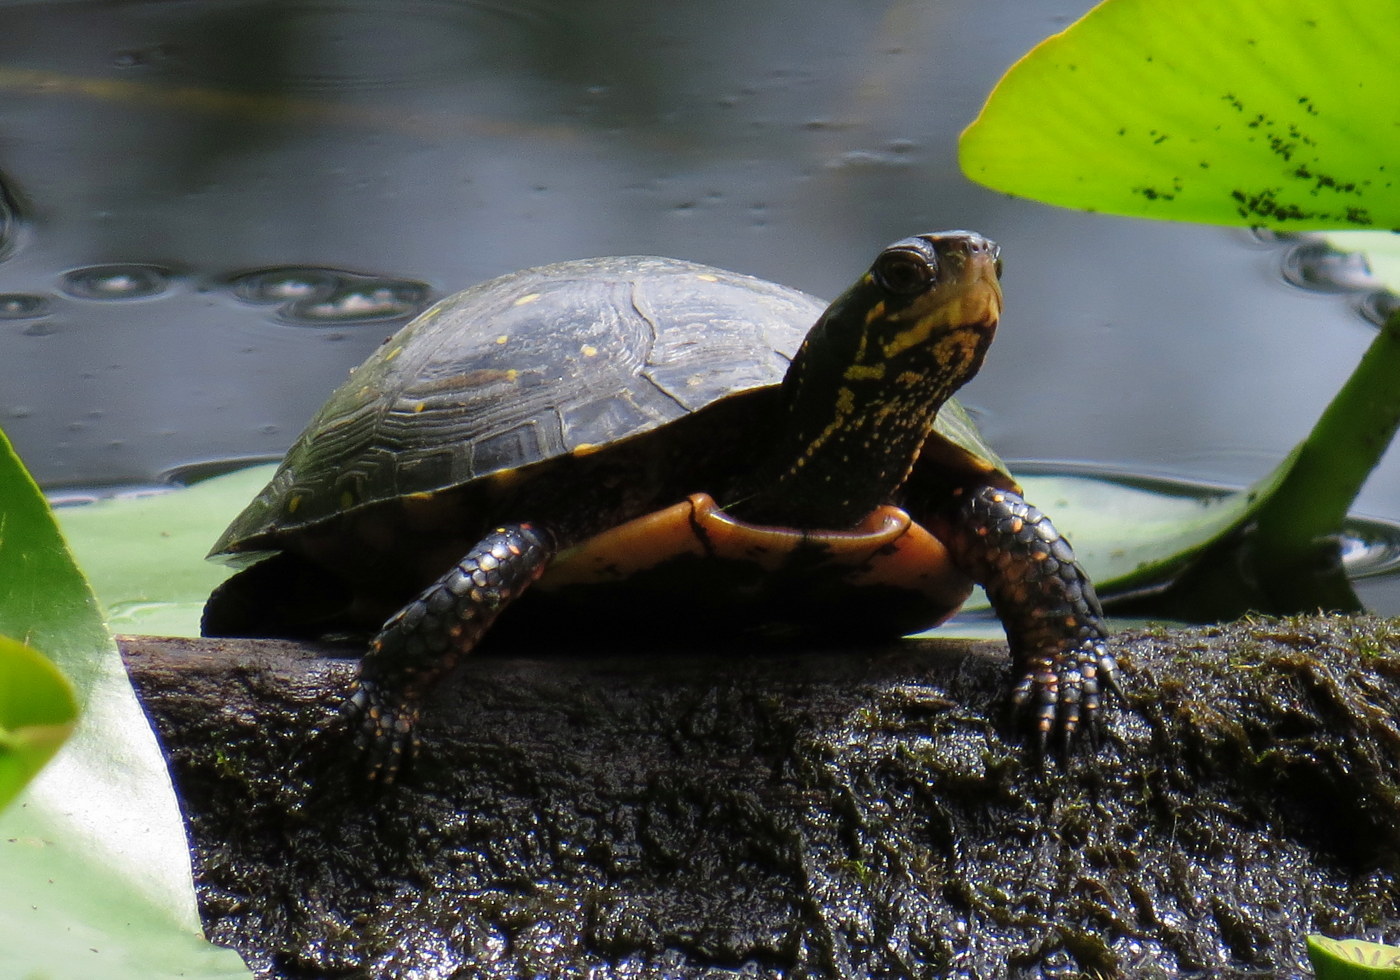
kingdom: Animalia
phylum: Chordata
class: Testudines
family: Emydidae
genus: Clemmys
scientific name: Clemmys guttata
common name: Spotted turtle
